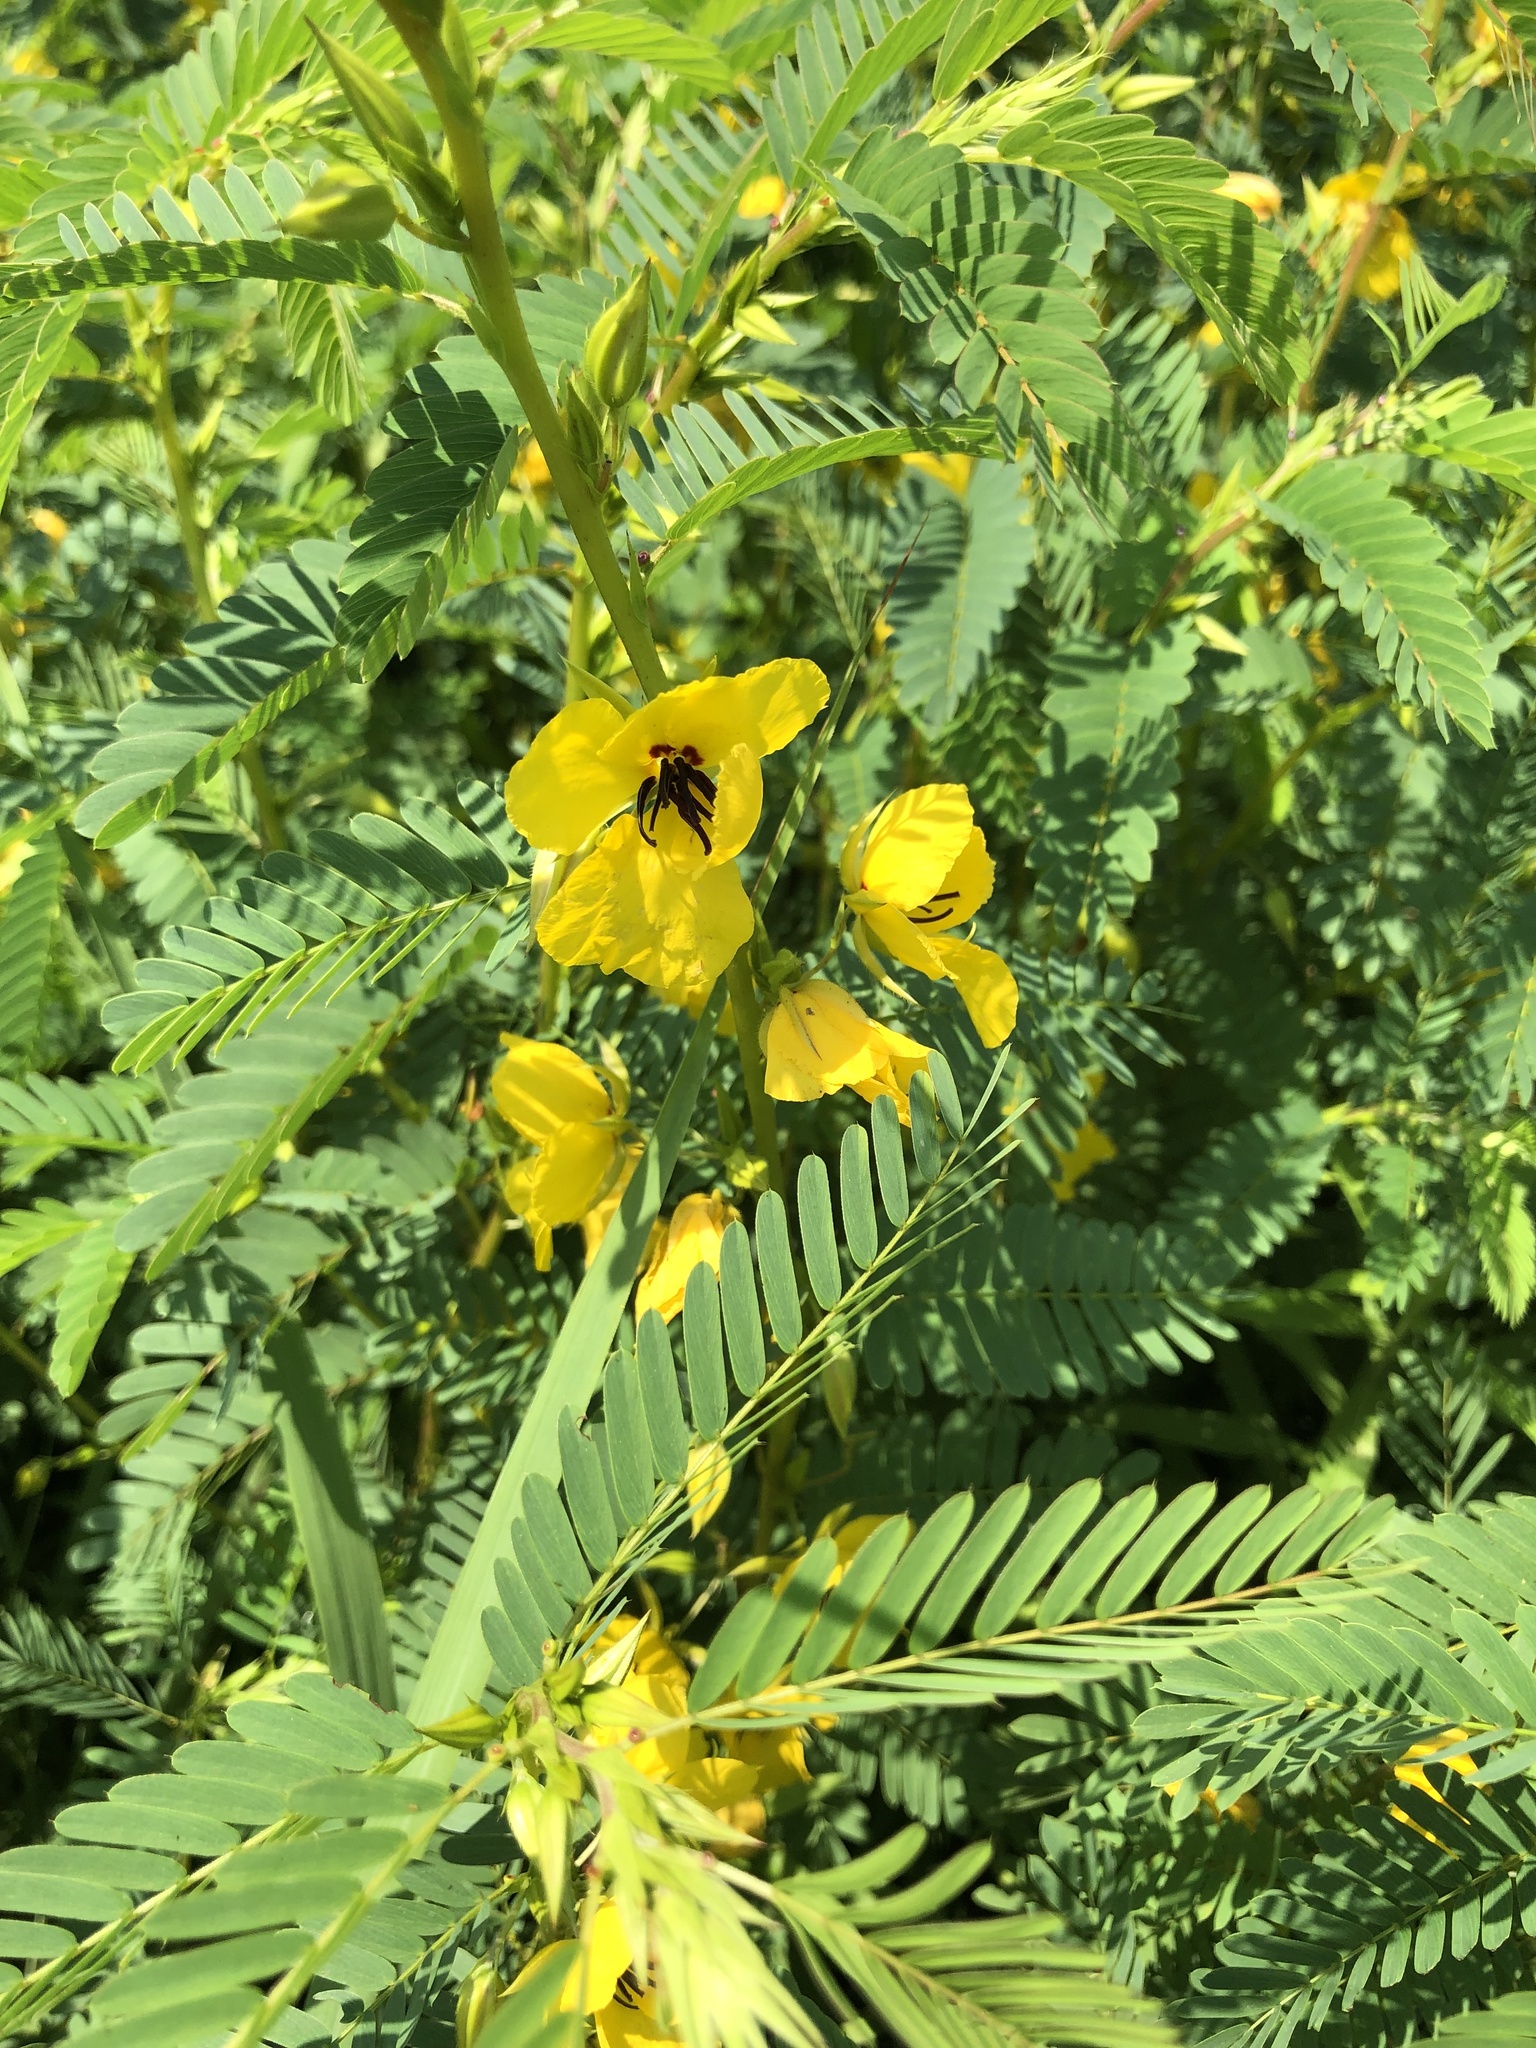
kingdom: Plantae
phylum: Tracheophyta
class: Magnoliopsida
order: Fabales
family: Fabaceae
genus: Chamaecrista
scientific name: Chamaecrista fasciculata
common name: Golden cassia
